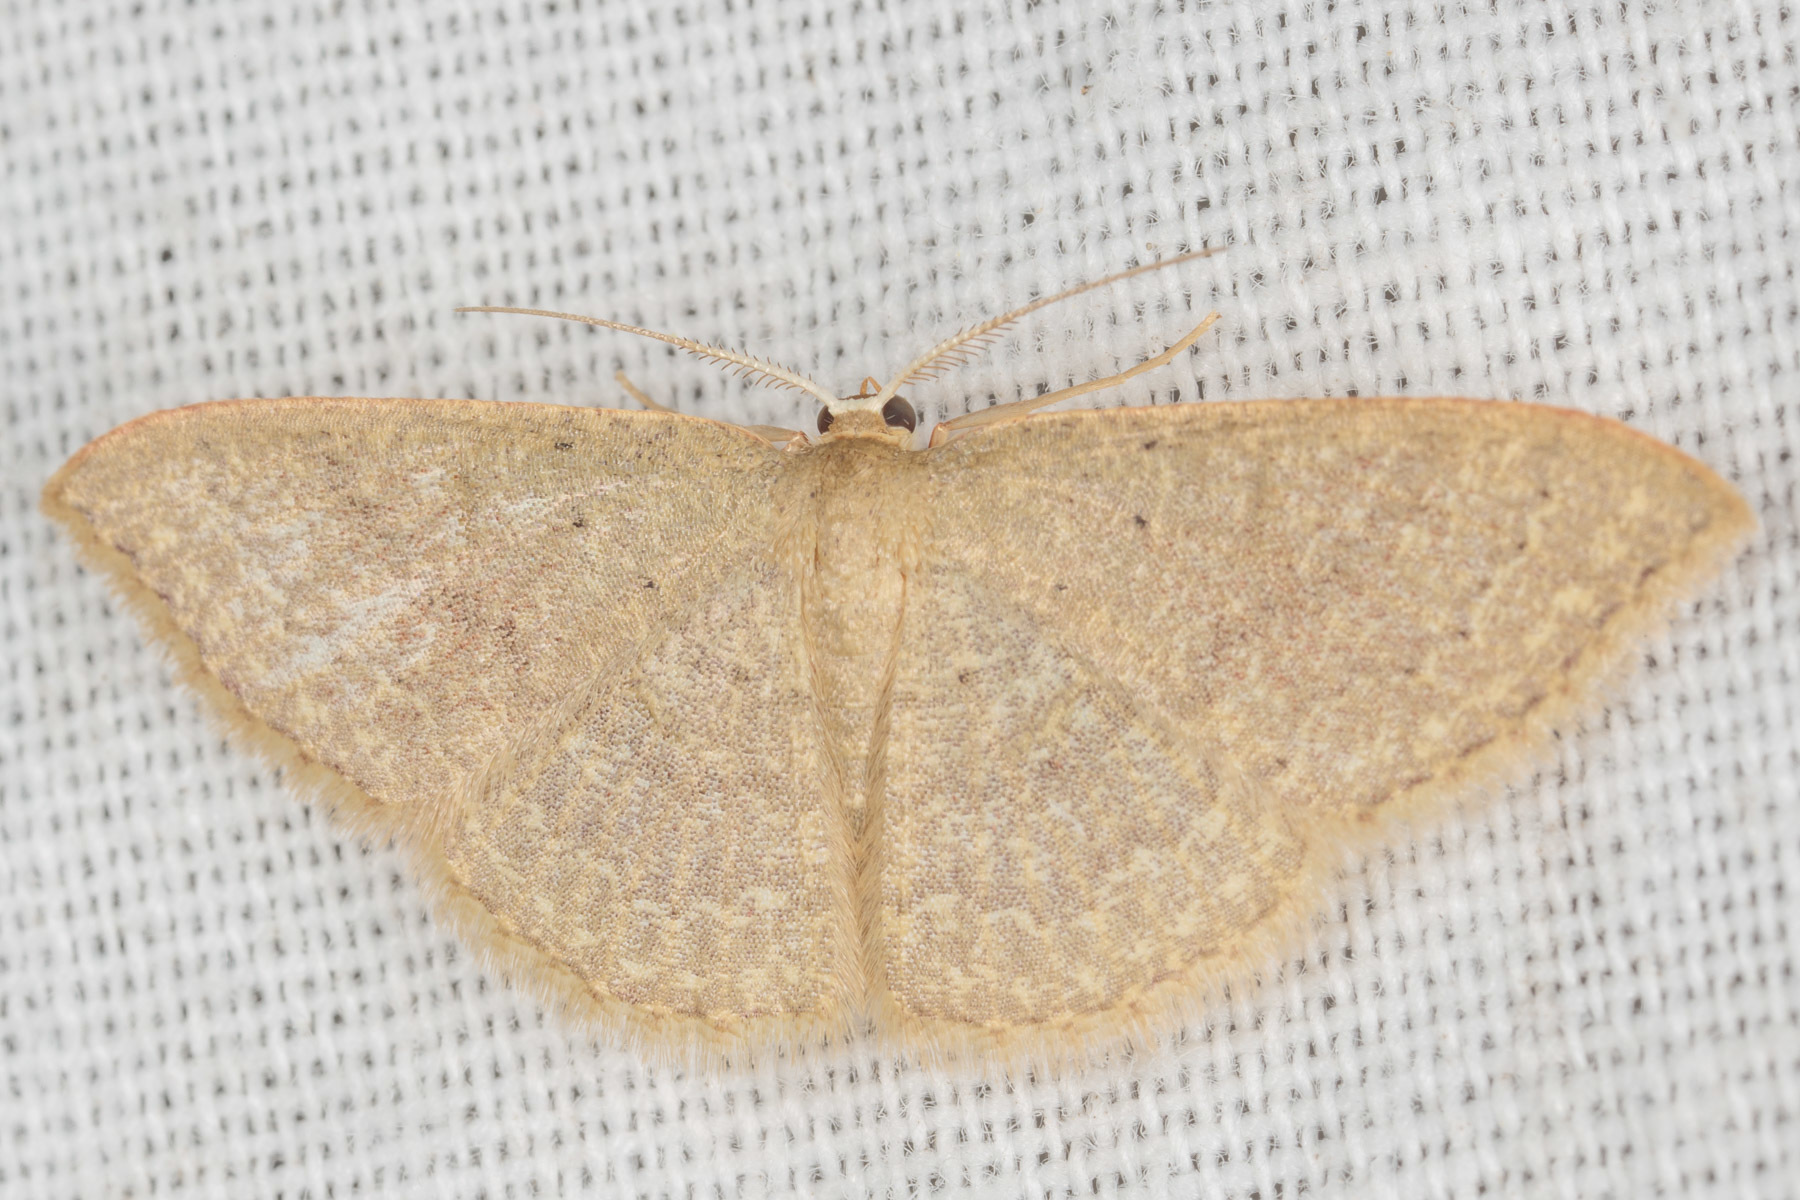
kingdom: Animalia
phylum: Arthropoda
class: Insecta
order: Lepidoptera
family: Geometridae
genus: Pleuroprucha
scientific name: Pleuroprucha insulsaria
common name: Common tan wave
